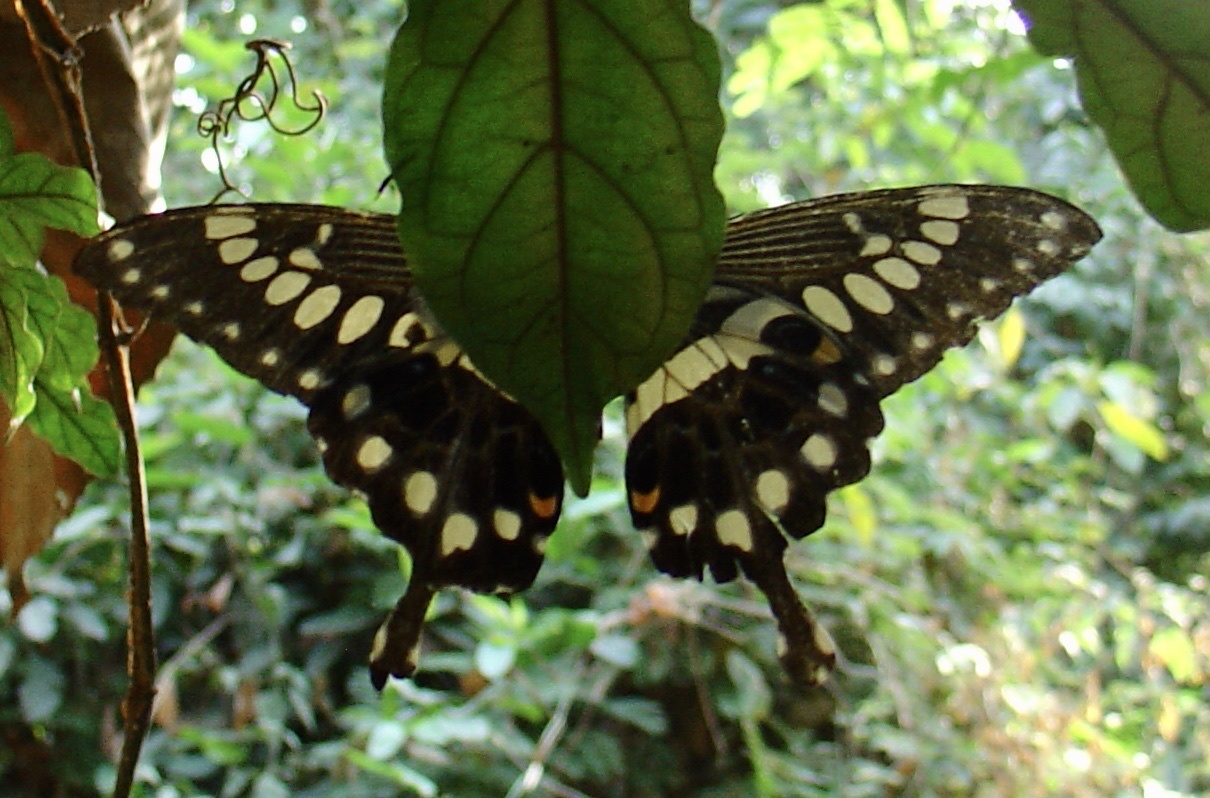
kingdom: Animalia
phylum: Arthropoda
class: Insecta
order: Lepidoptera
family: Papilionidae
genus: Papilio
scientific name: Papilio menestheus
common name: Western emperor swallowtail
